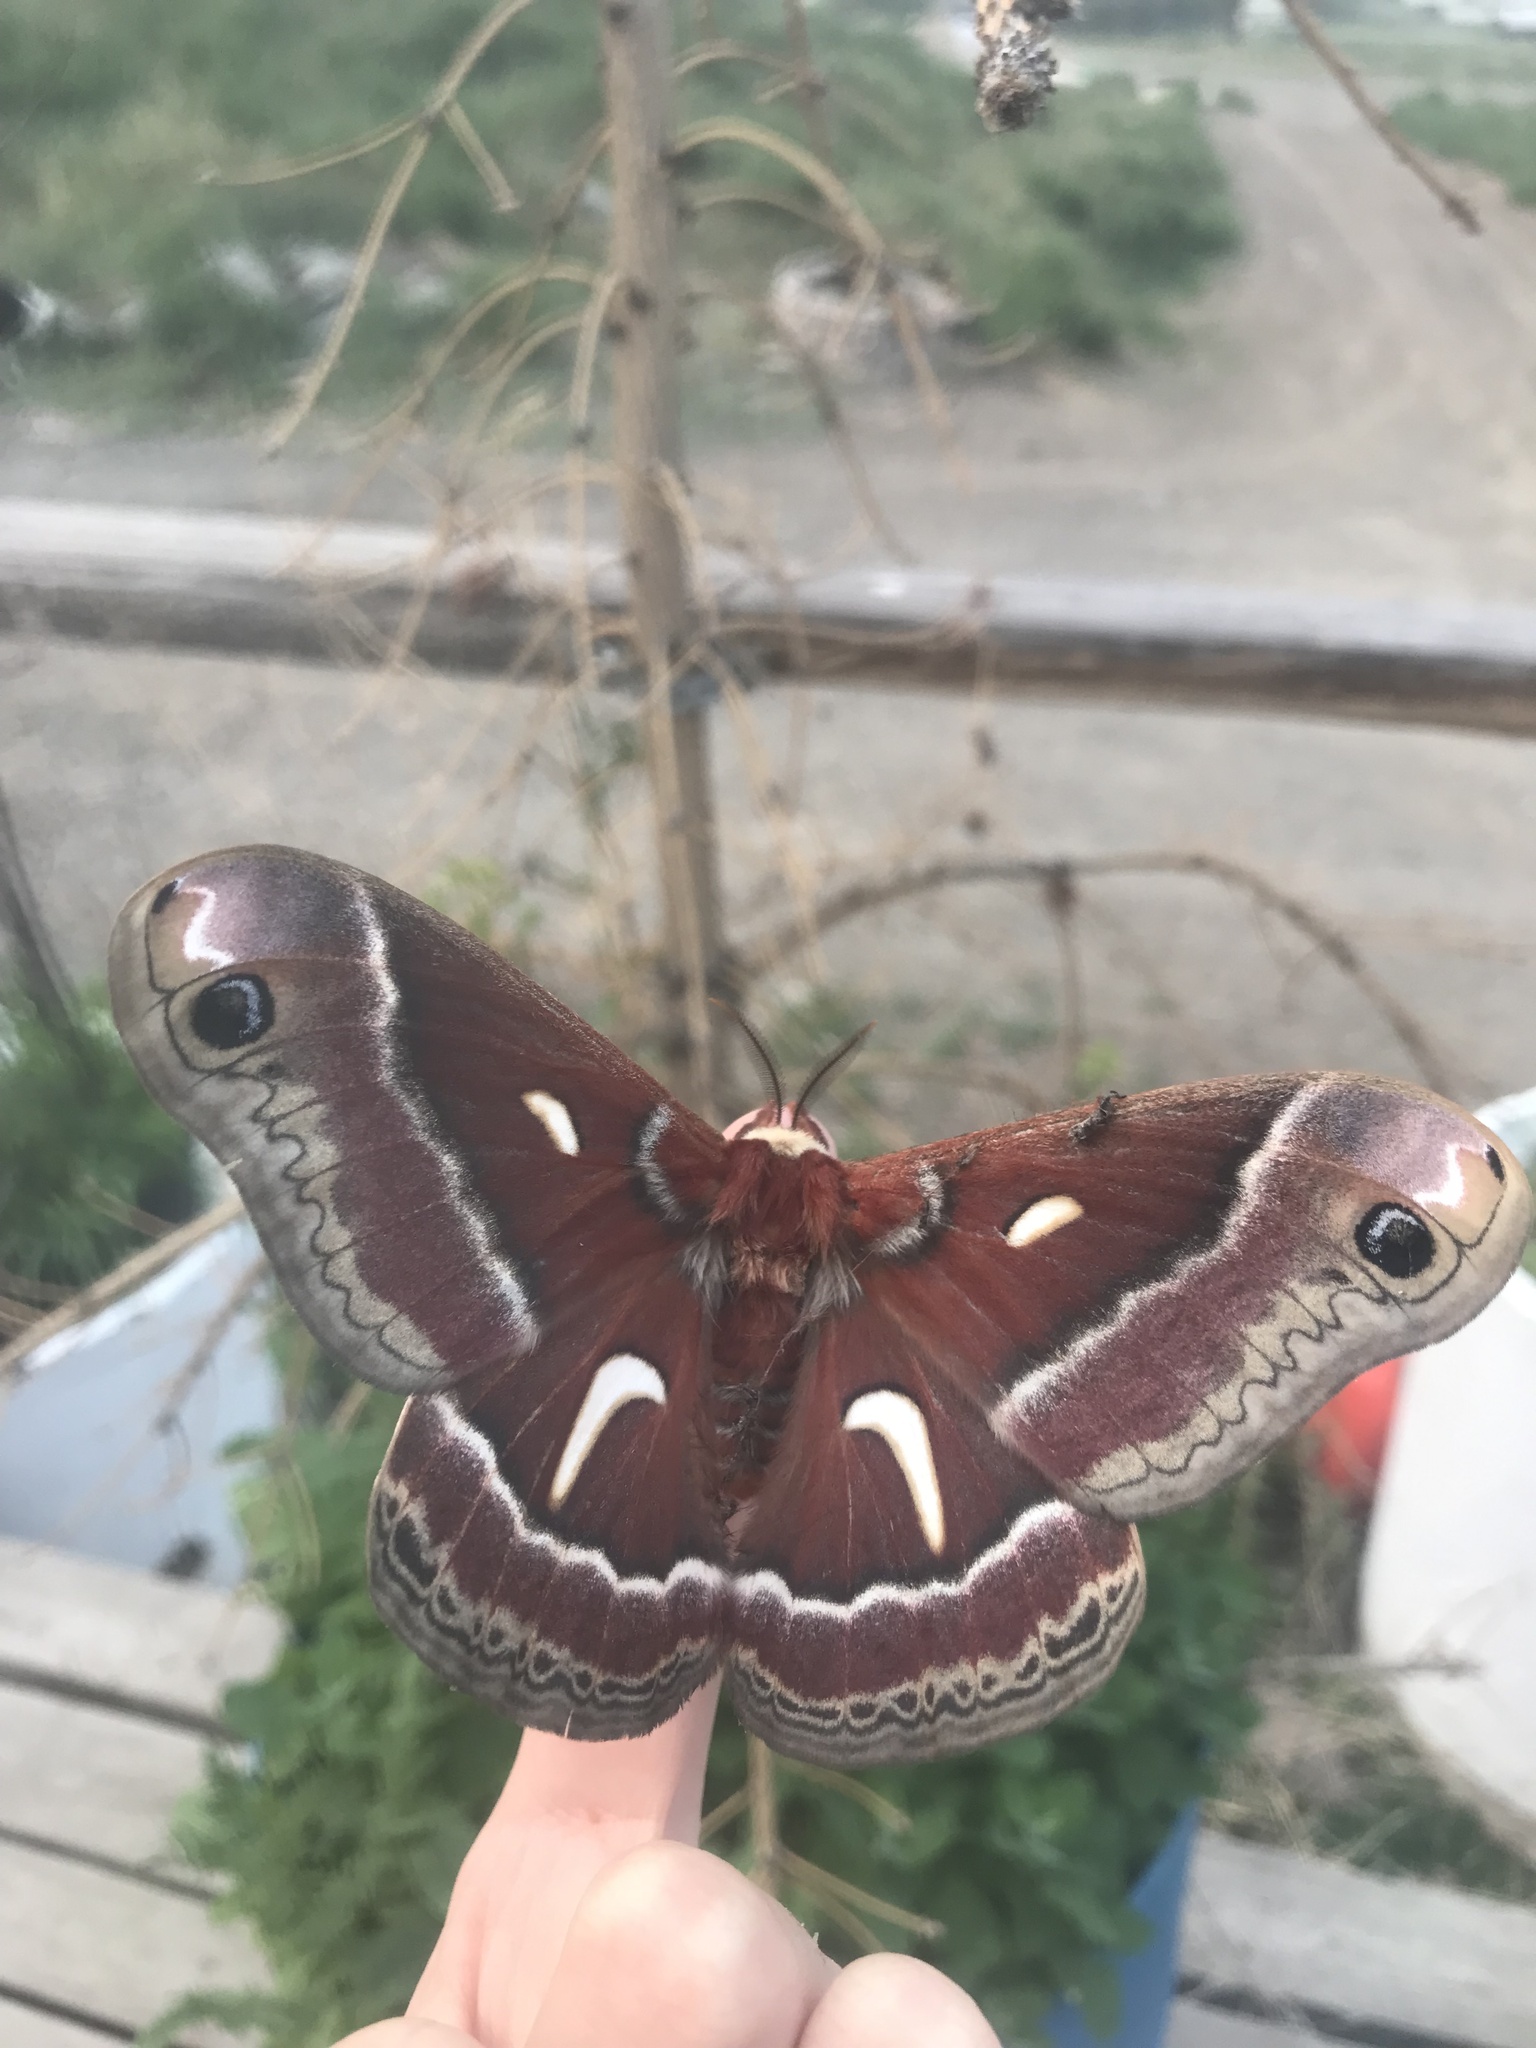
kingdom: Animalia
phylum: Arthropoda
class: Insecta
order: Lepidoptera
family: Saturniidae
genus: Hyalophora
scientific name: Hyalophora euryalus
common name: Ceanothus silkmoth
